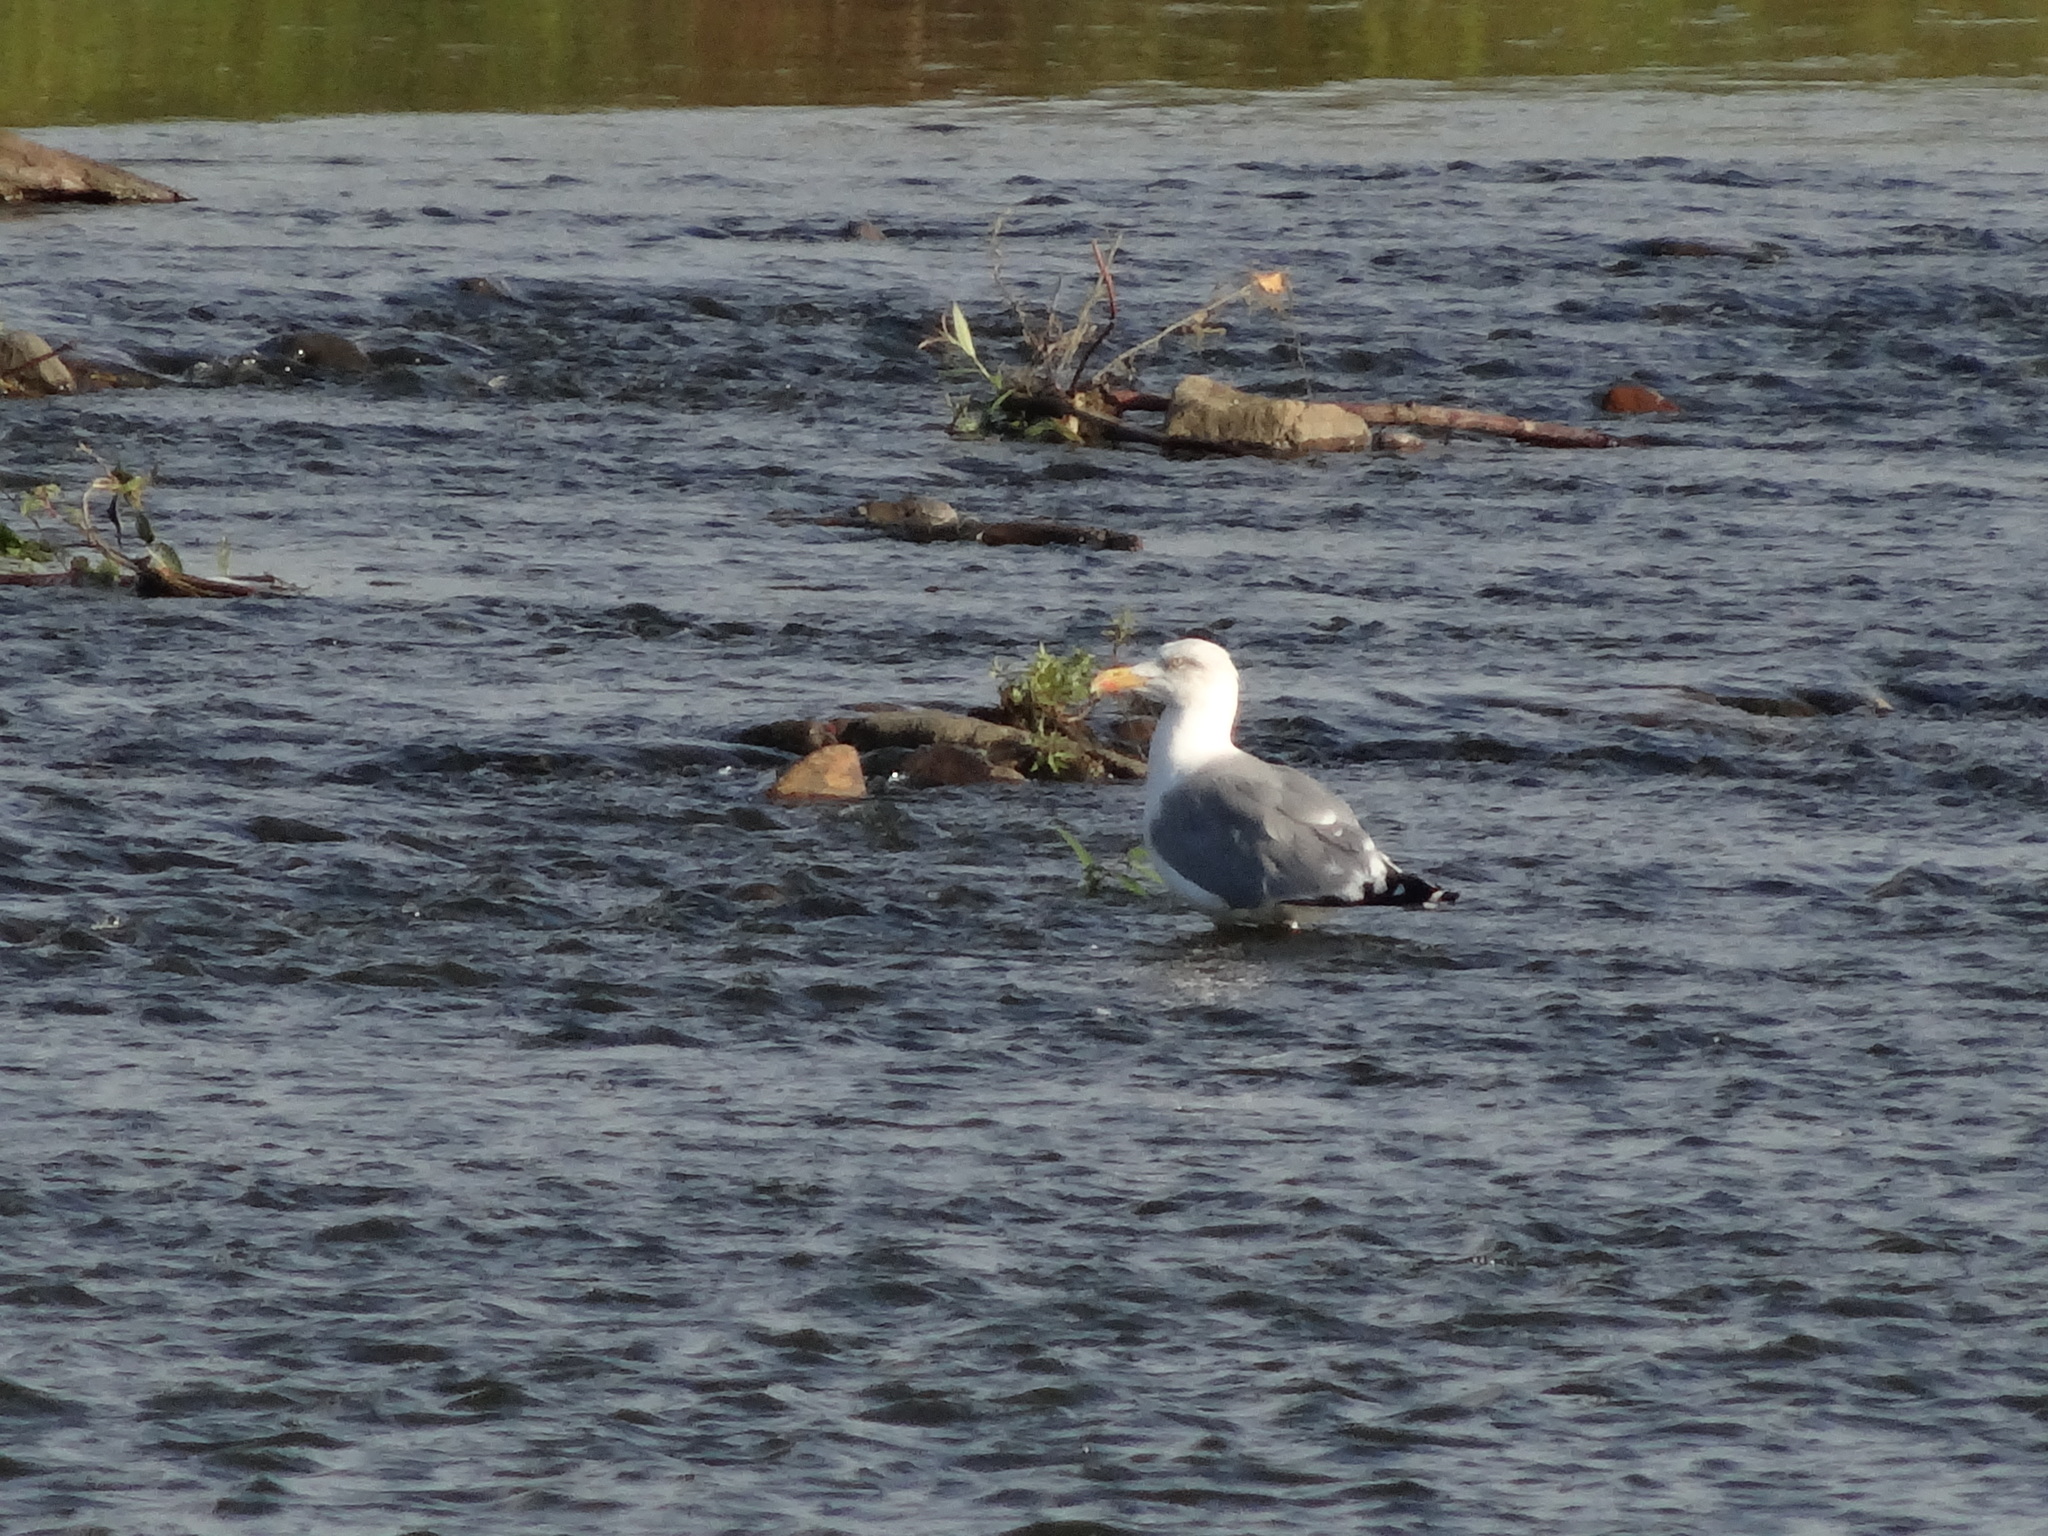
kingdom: Animalia
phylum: Chordata
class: Aves
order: Charadriiformes
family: Laridae
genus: Larus
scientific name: Larus argentatus
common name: Herring gull
